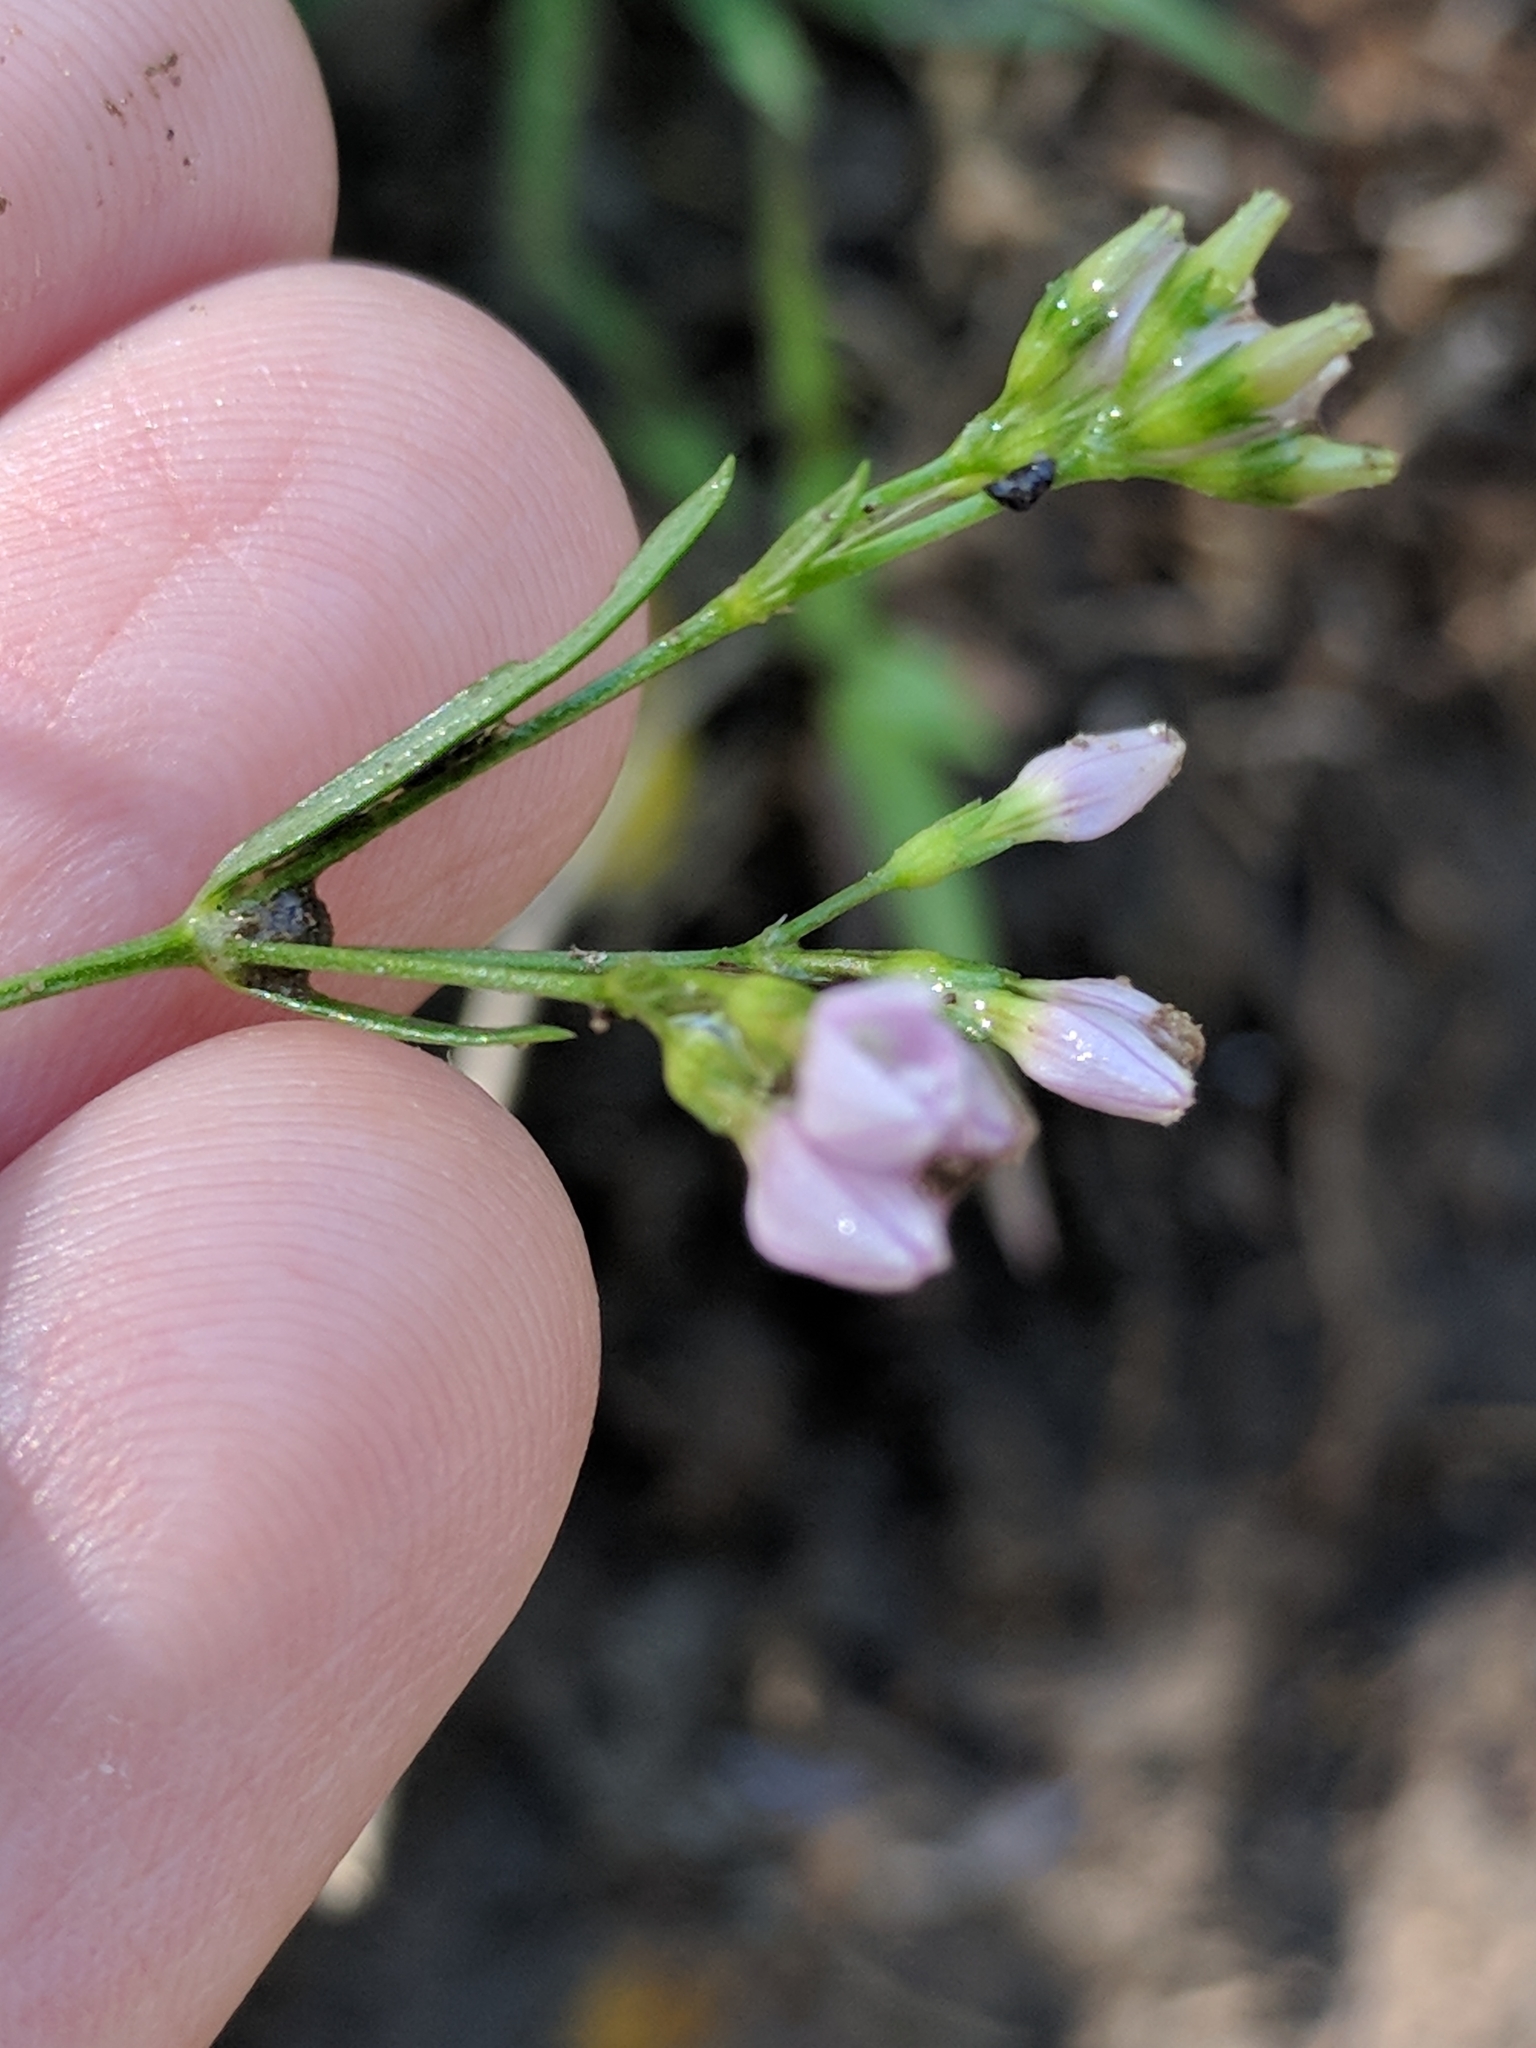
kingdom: Plantae
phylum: Tracheophyta
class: Magnoliopsida
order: Gentianales
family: Rubiaceae
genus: Stenaria
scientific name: Stenaria nigricans
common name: Diamondflowers
